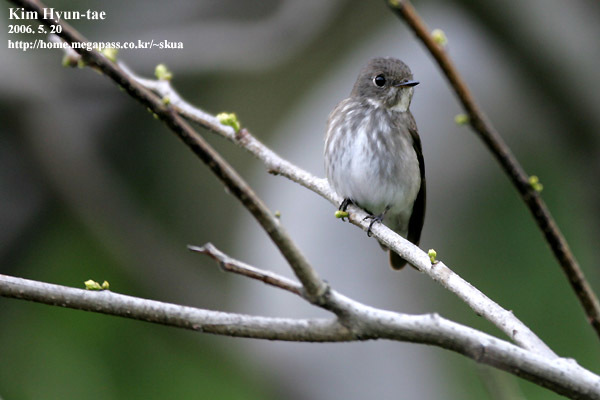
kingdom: Animalia
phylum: Chordata
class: Aves
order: Passeriformes
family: Muscicapidae
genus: Muscicapa
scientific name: Muscicapa sibirica
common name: Dark-sided flycatcher
